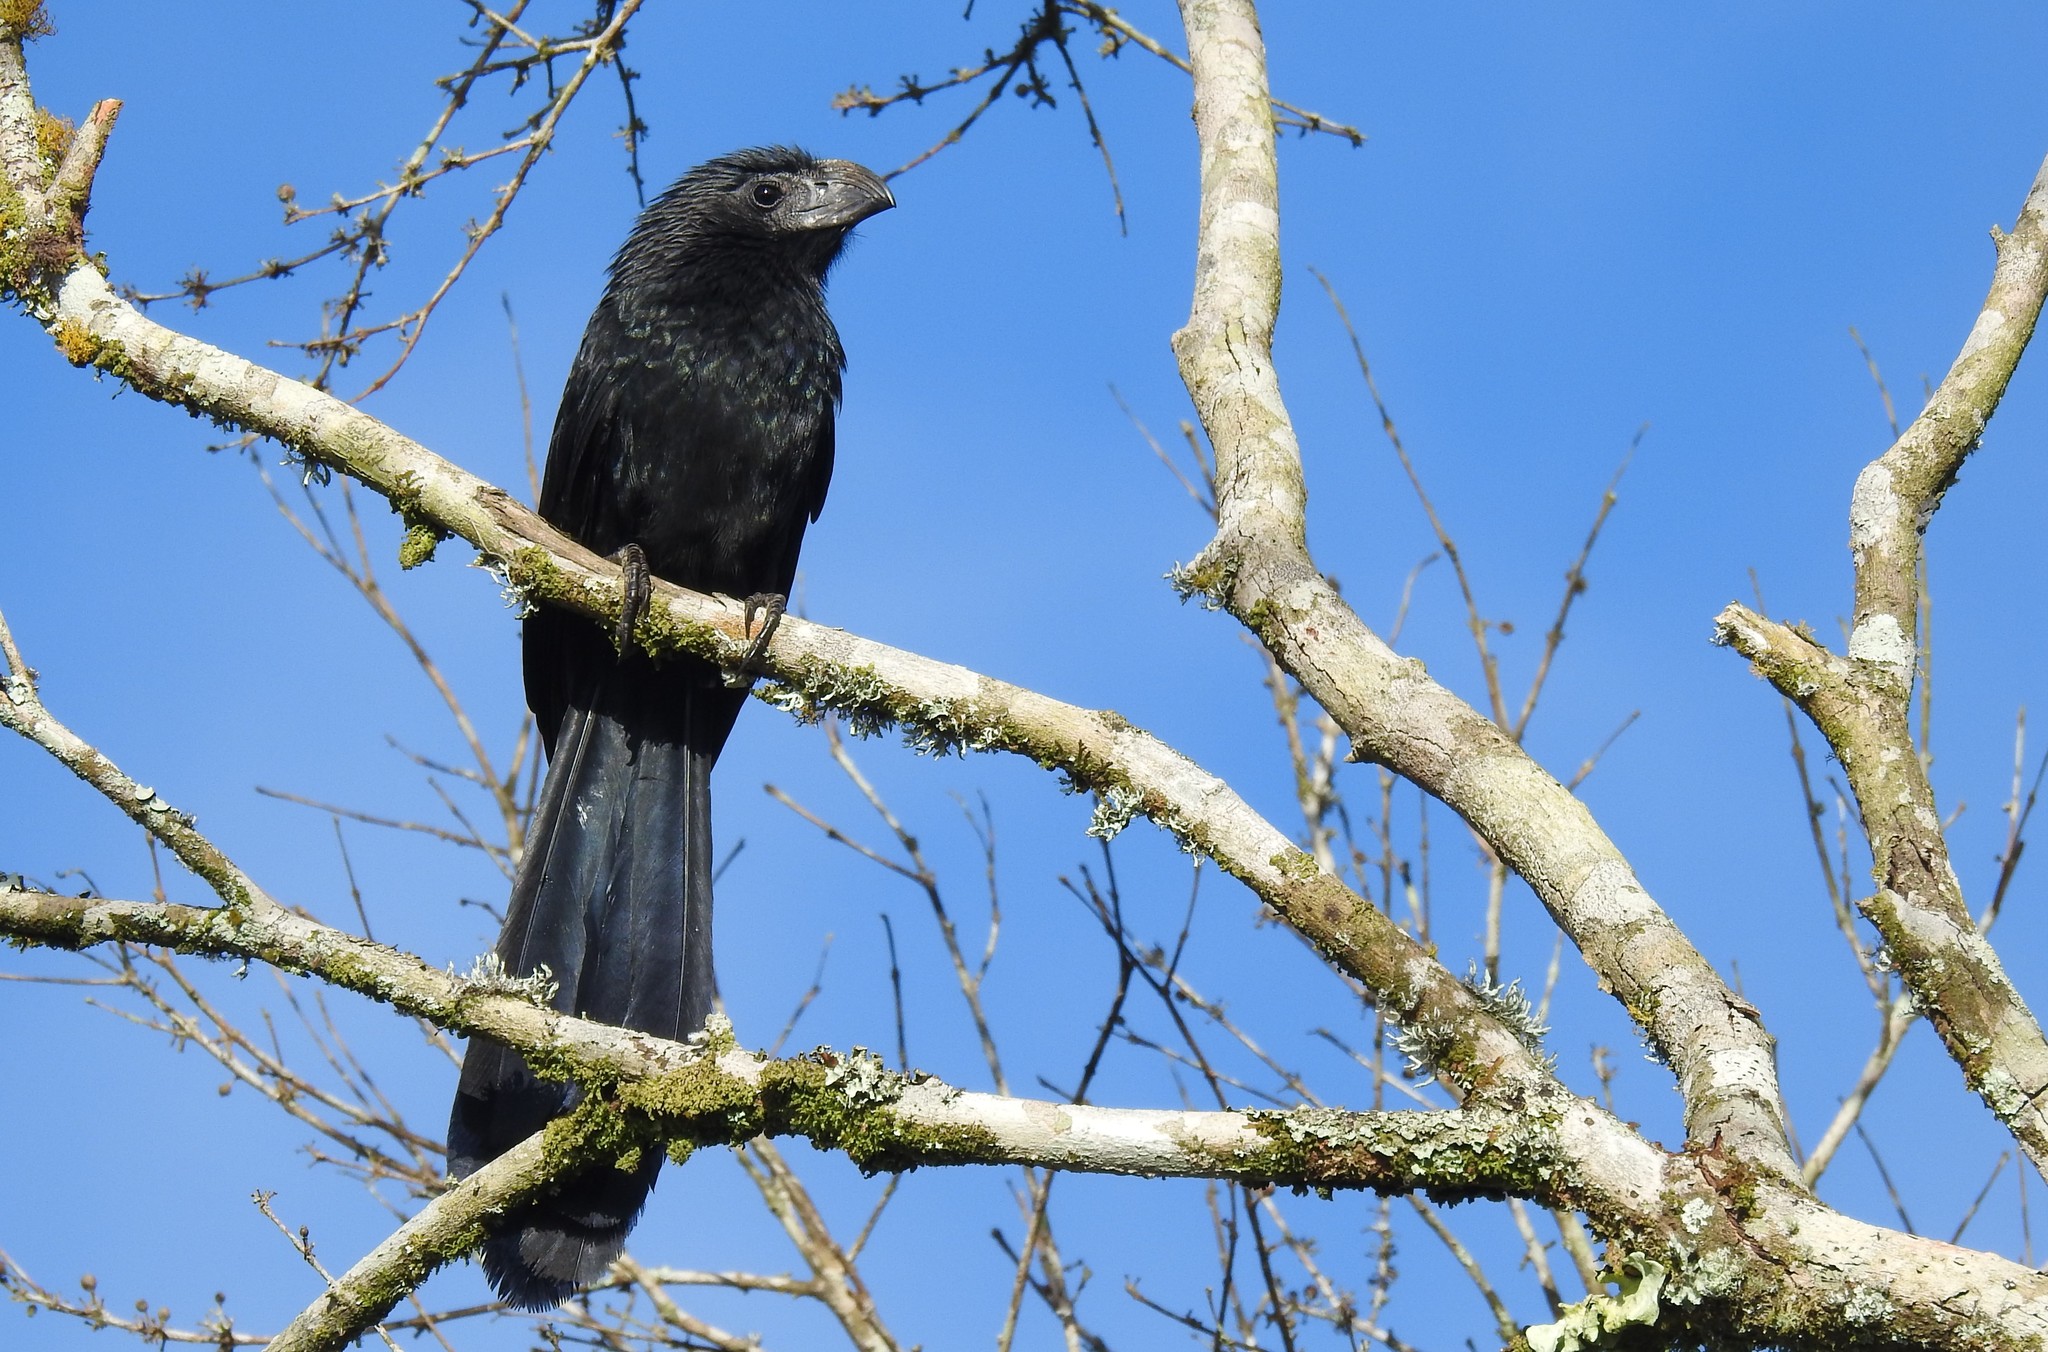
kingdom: Animalia
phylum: Chordata
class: Aves
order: Cuculiformes
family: Cuculidae
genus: Crotophaga
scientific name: Crotophaga sulcirostris
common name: Groove-billed ani
